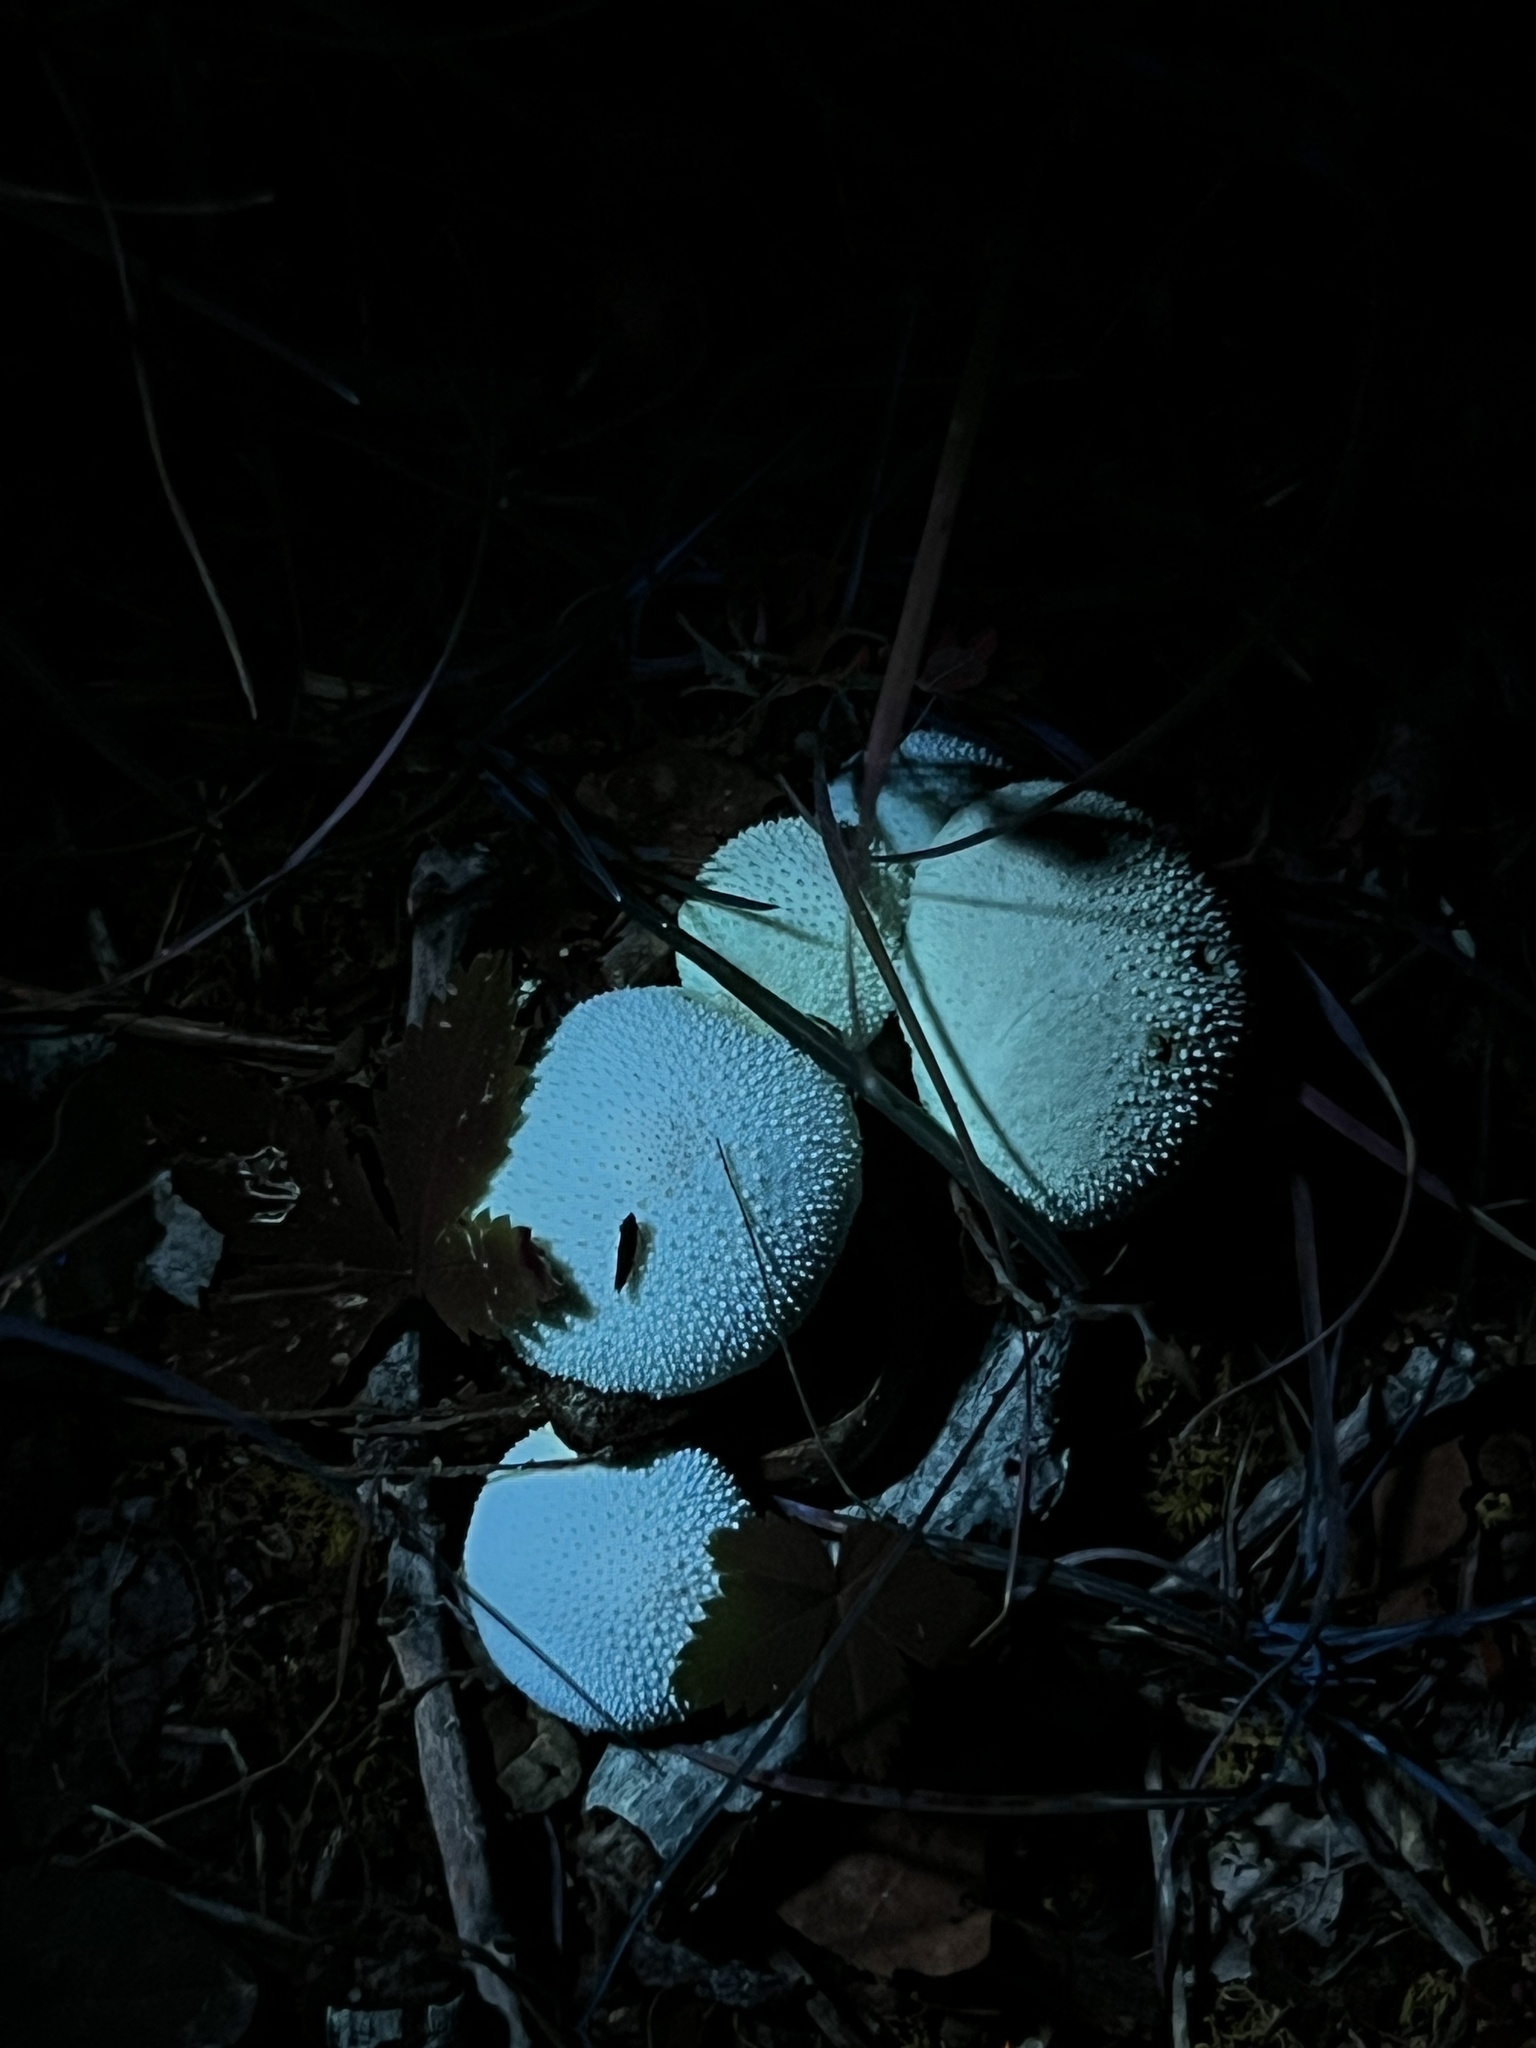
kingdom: Fungi
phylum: Basidiomycota
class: Agaricomycetes
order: Agaricales
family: Lycoperdaceae
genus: Lycoperdon
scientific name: Lycoperdon perlatum
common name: Common puffball
